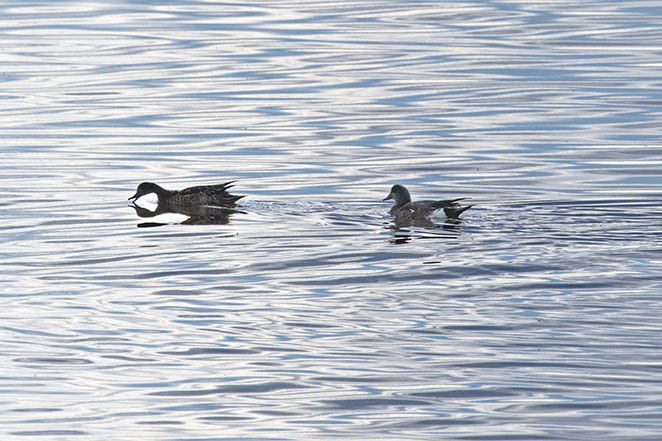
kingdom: Animalia
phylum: Chordata
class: Aves
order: Anseriformes
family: Anatidae
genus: Mareca
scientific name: Mareca americana
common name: American wigeon
